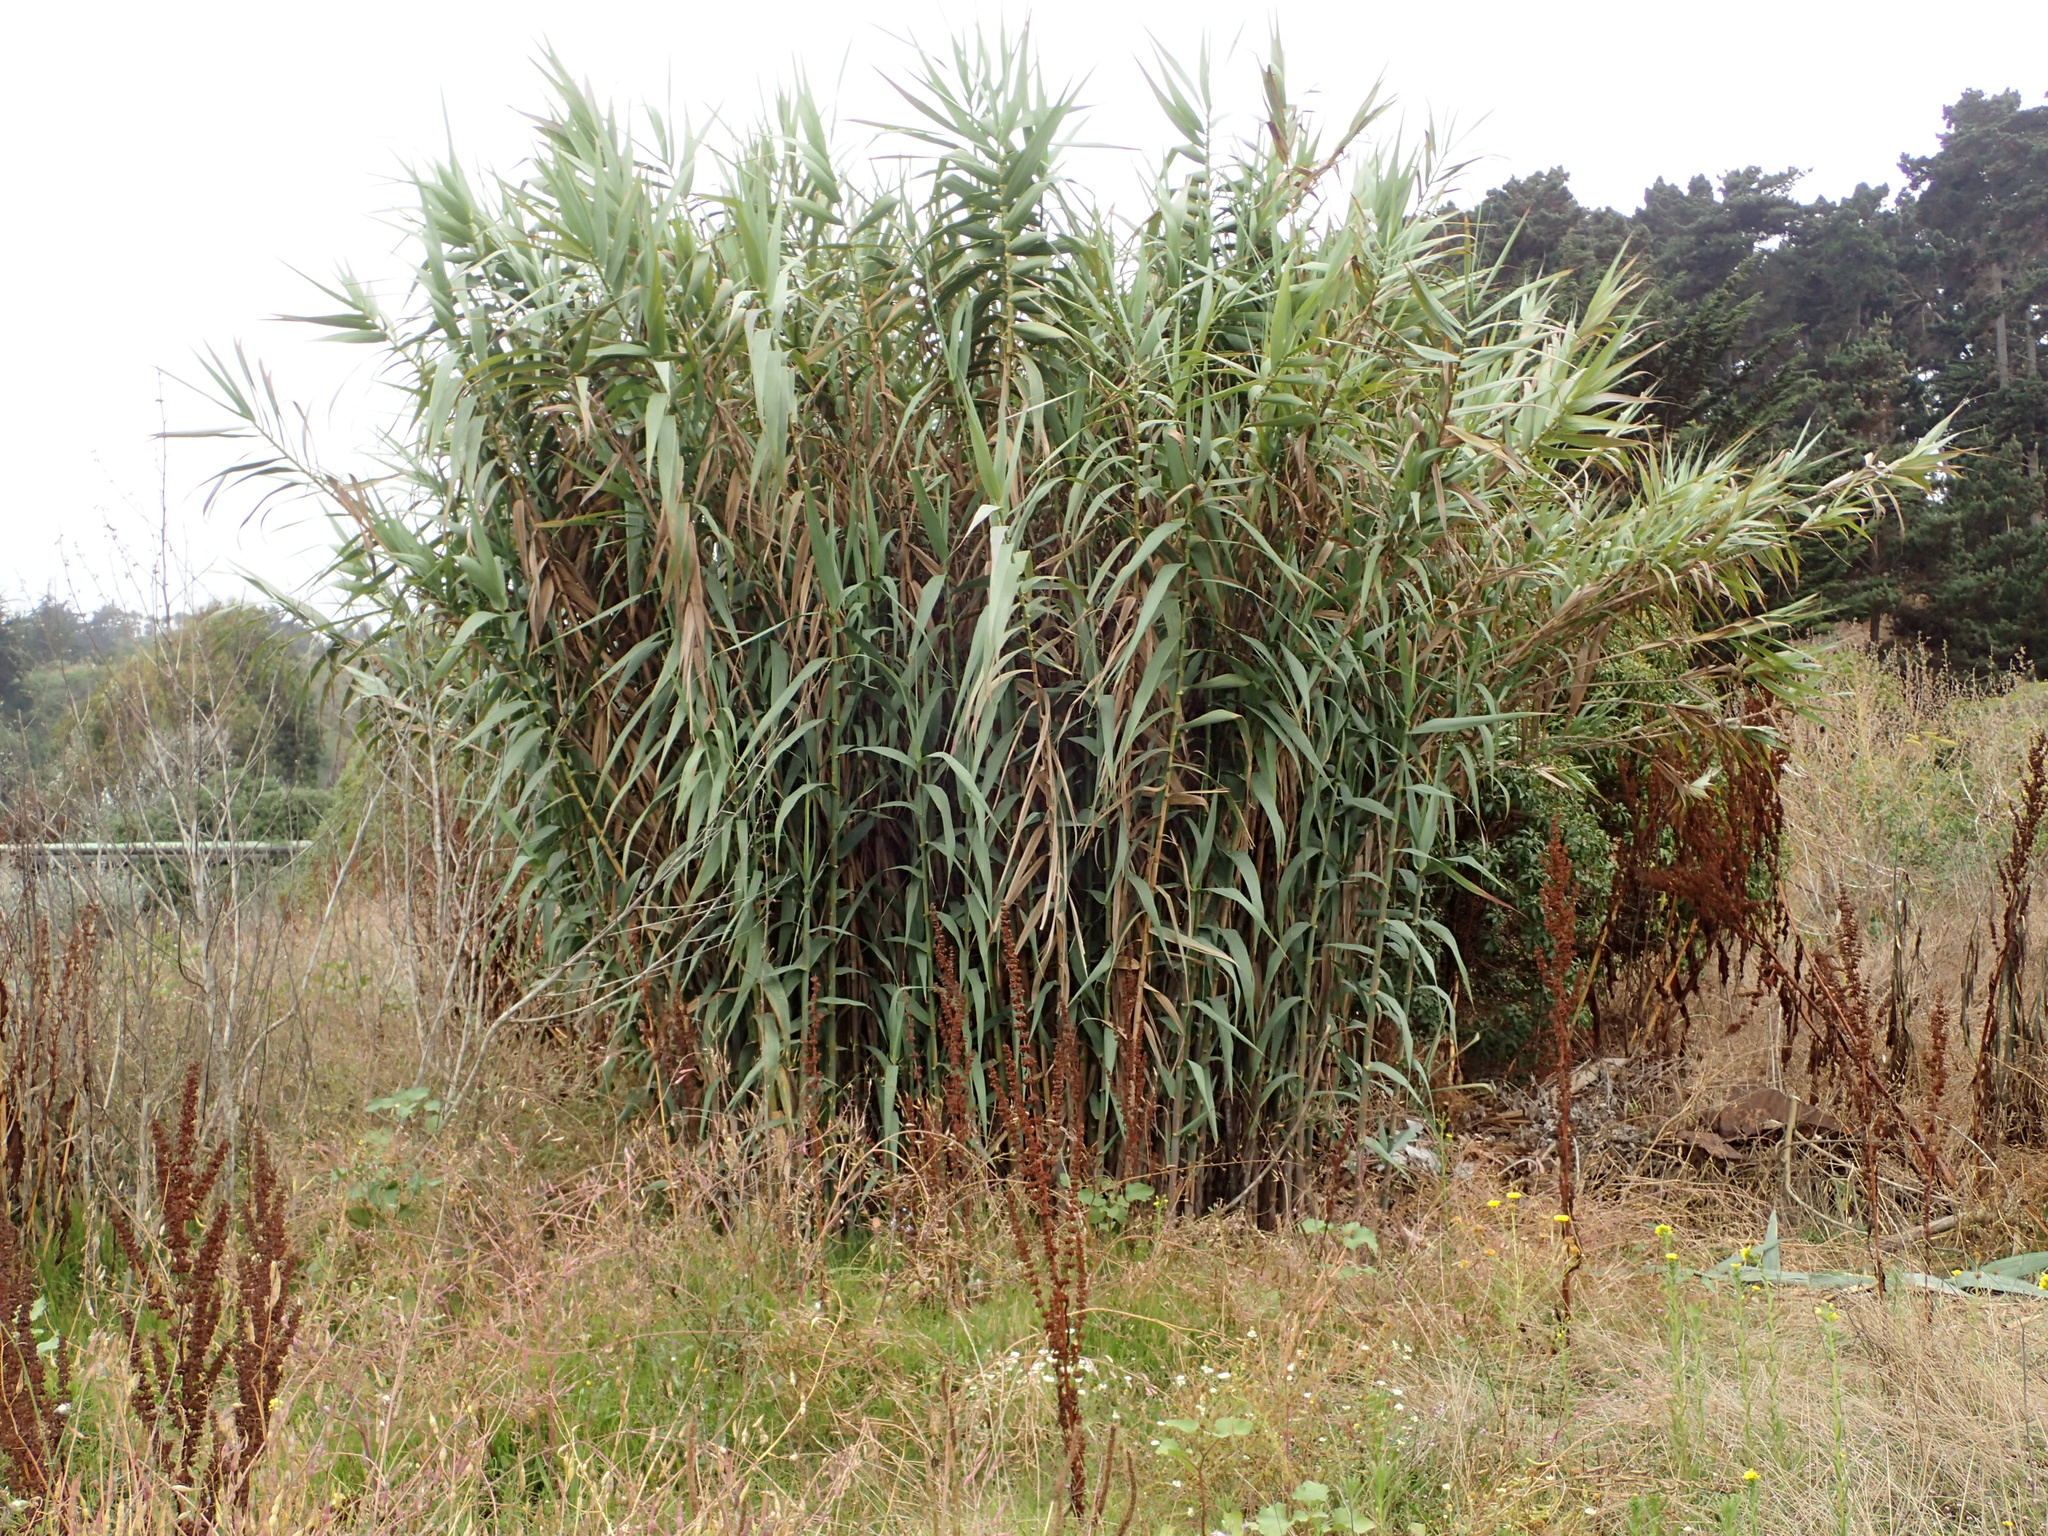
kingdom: Plantae
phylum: Tracheophyta
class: Liliopsida
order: Poales
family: Poaceae
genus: Arundo
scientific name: Arundo donax
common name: Giant reed
